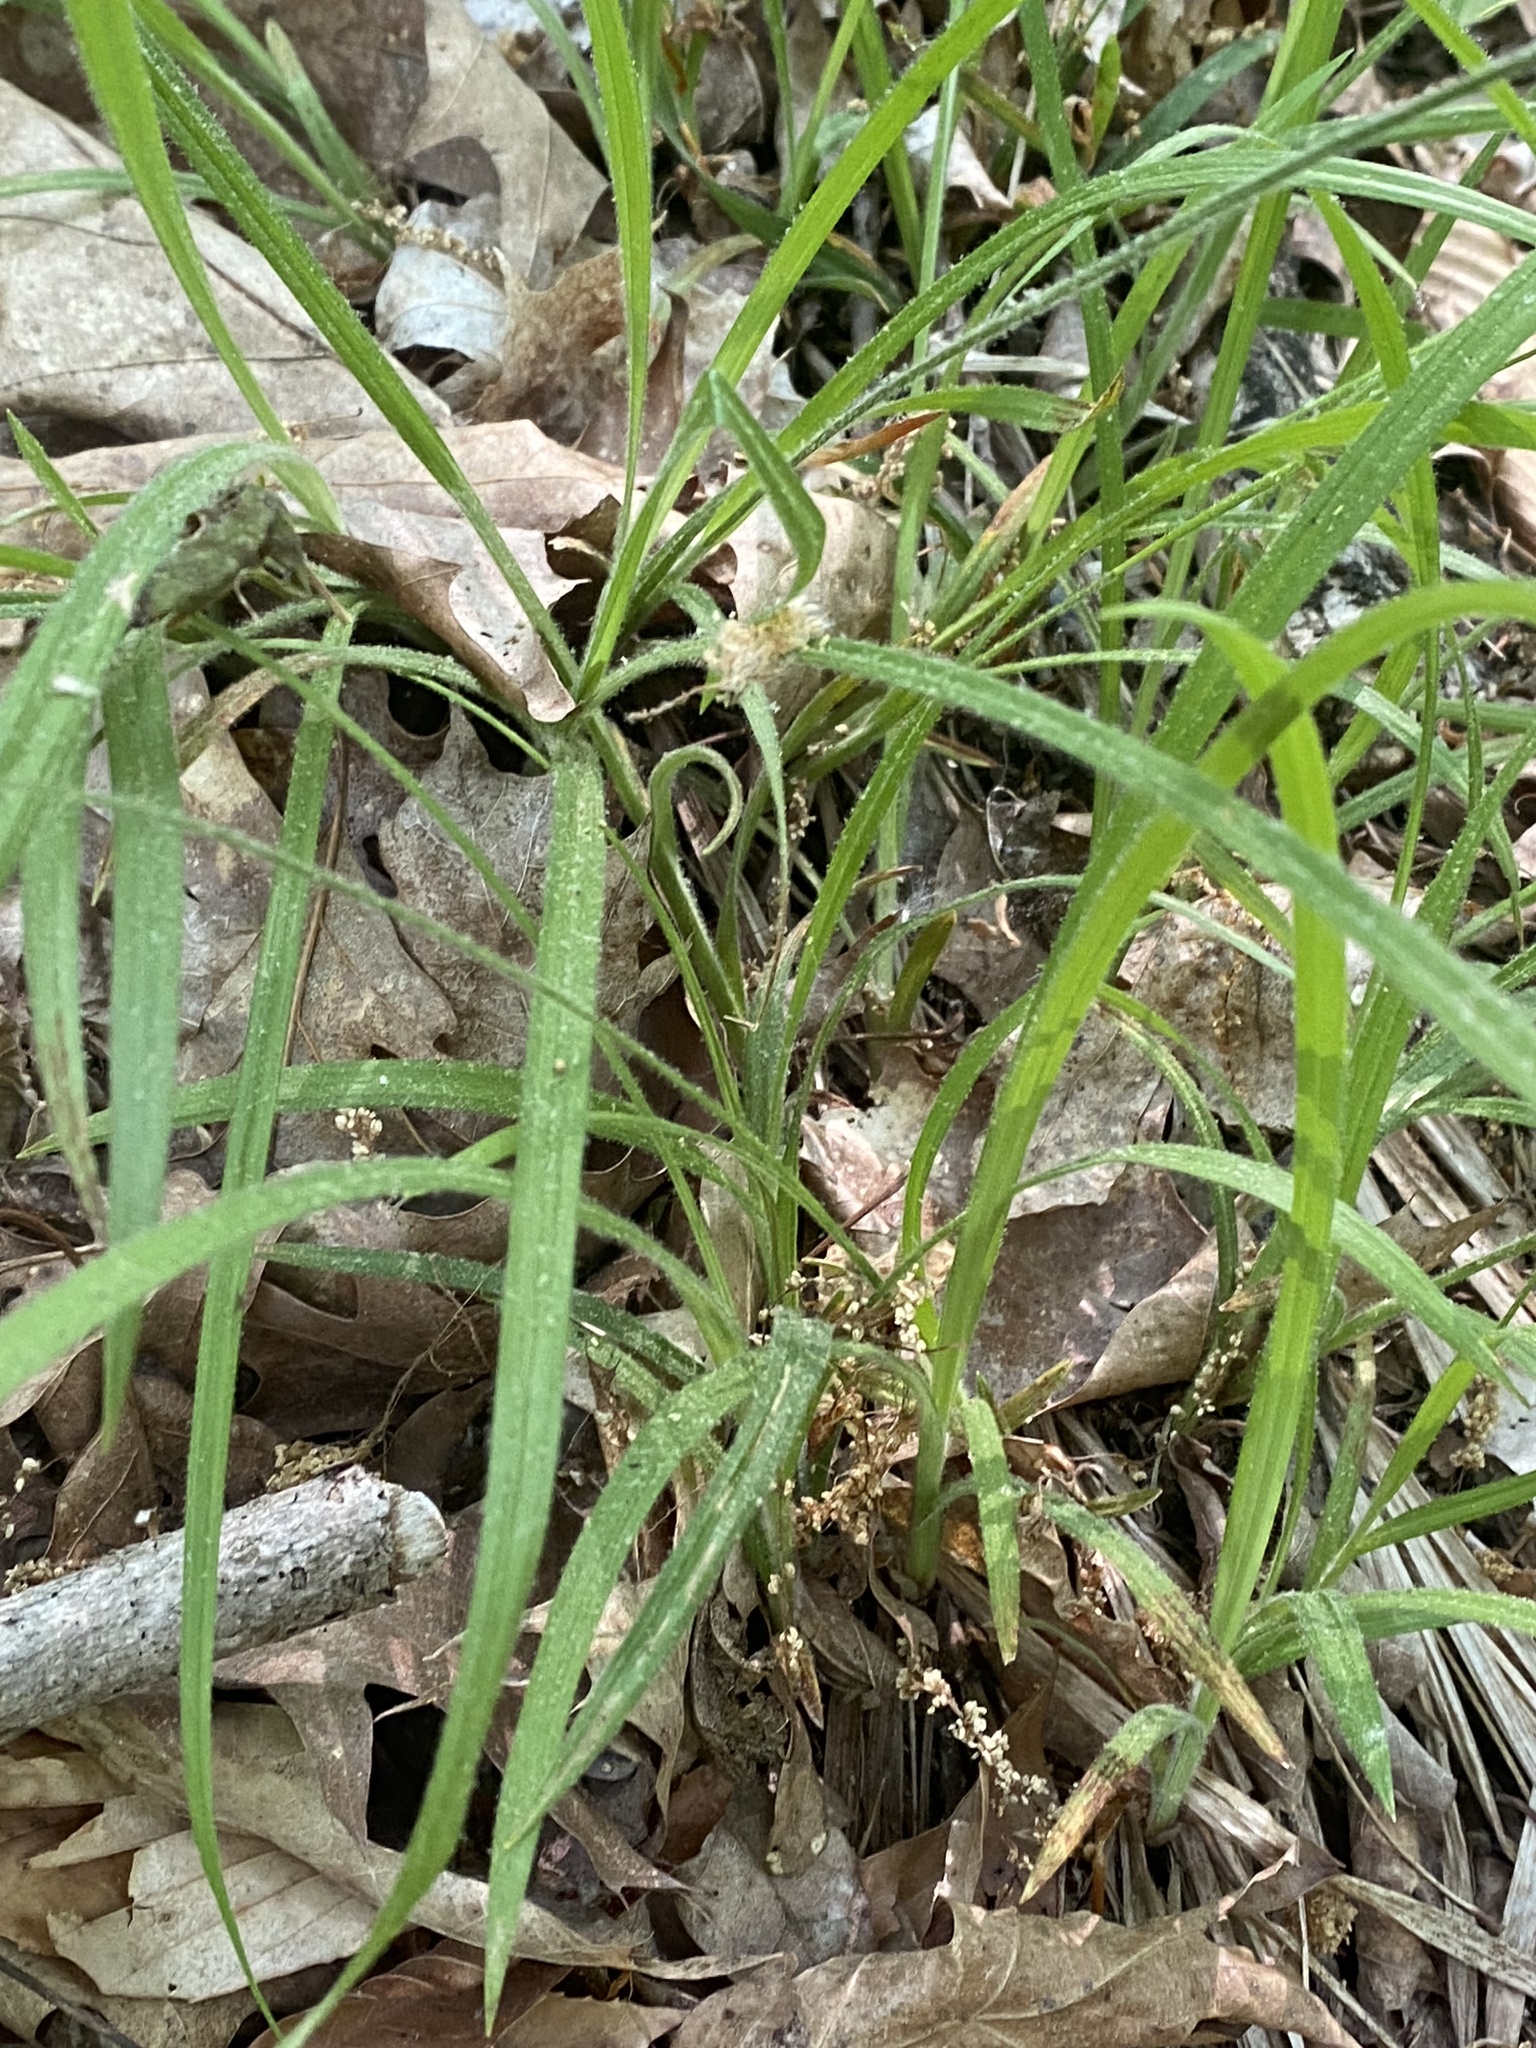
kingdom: Plantae
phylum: Tracheophyta
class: Liliopsida
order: Poales
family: Cyperaceae
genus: Carex
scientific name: Carex hirtifolia
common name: Hairy sedge
